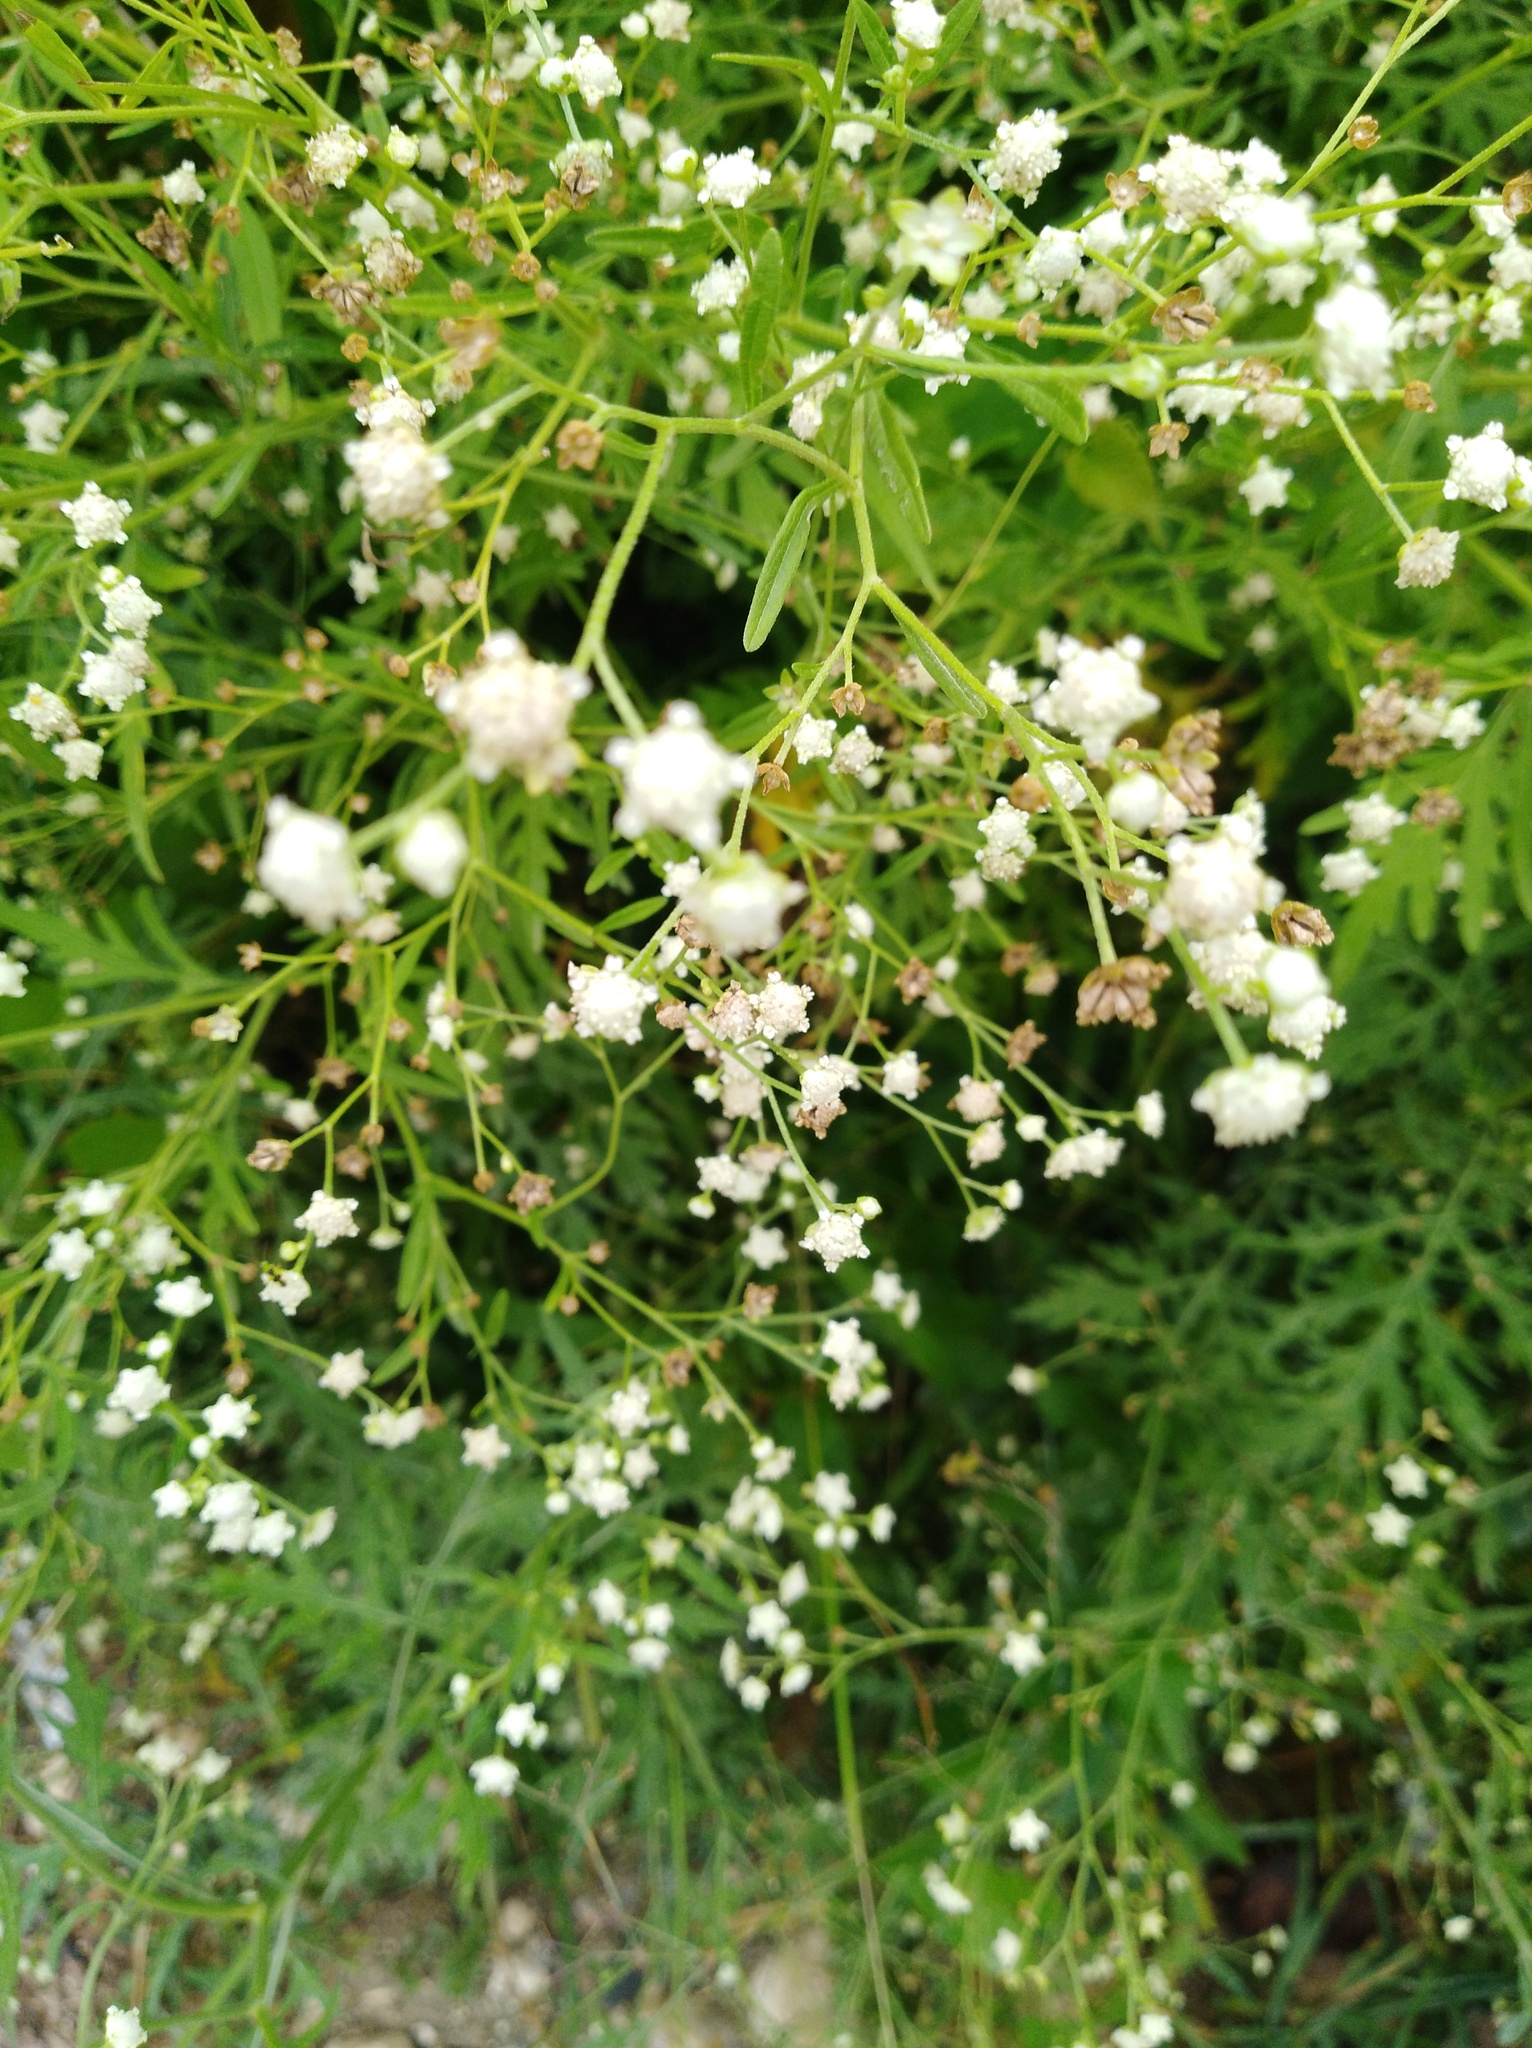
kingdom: Plantae
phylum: Tracheophyta
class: Magnoliopsida
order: Asterales
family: Asteraceae
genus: Parthenium
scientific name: Parthenium hysterophorus
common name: Santa maria feverfew
